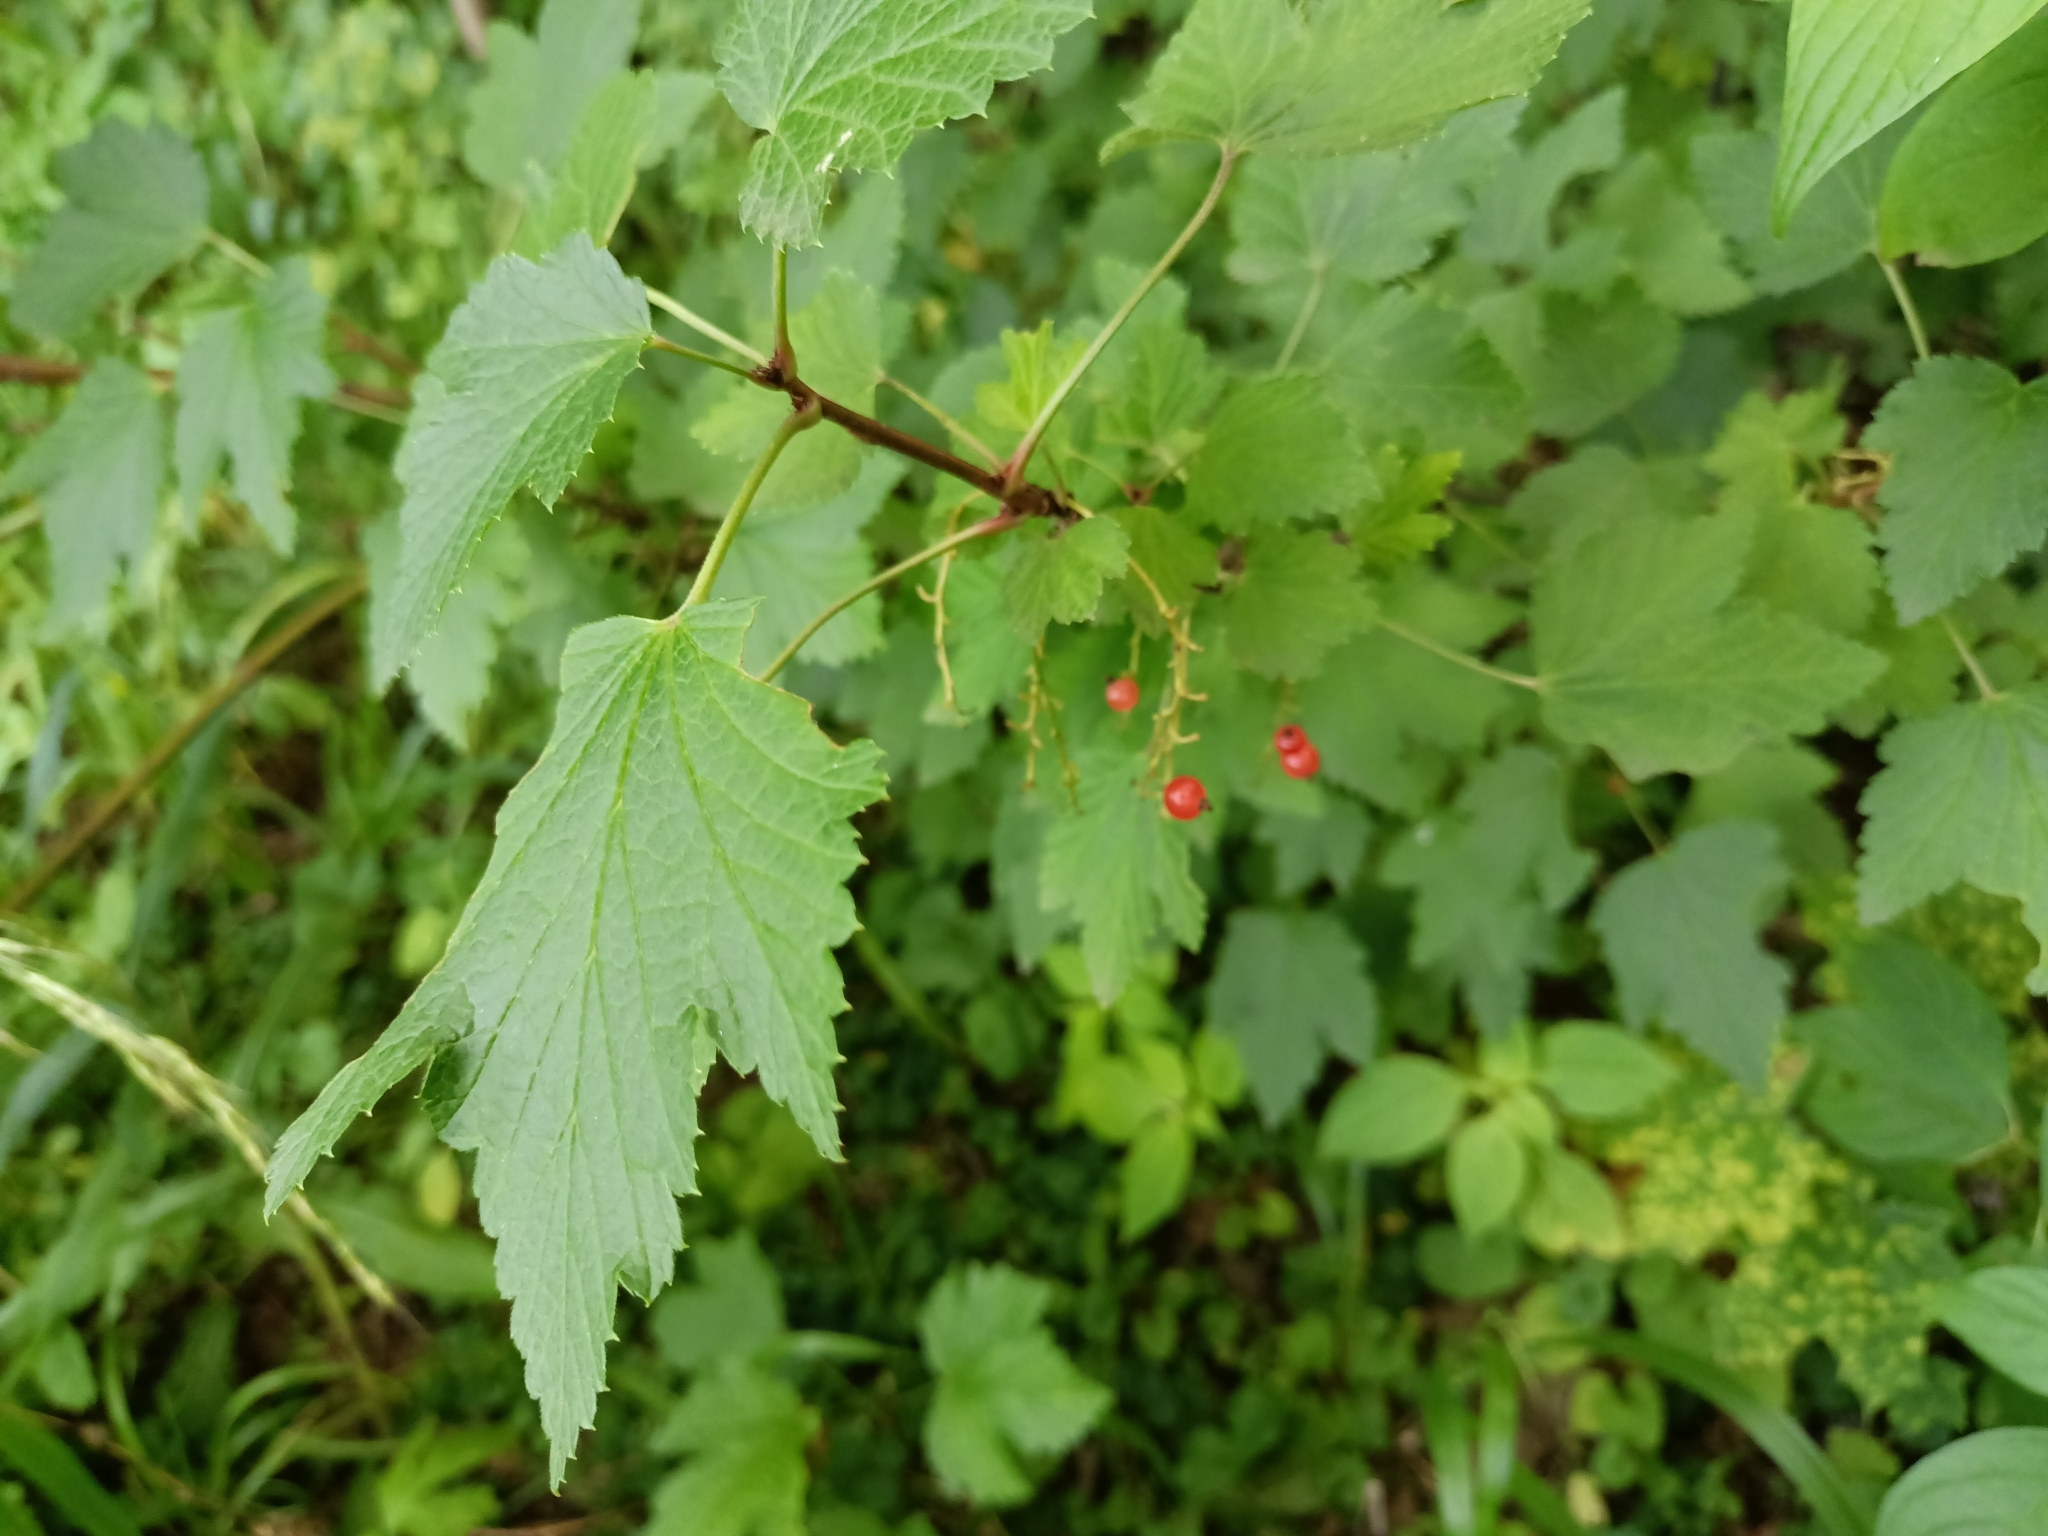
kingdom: Plantae
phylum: Tracheophyta
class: Magnoliopsida
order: Saxifragales
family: Grossulariaceae
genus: Ribes
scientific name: Ribes rubrum
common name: Red currant
